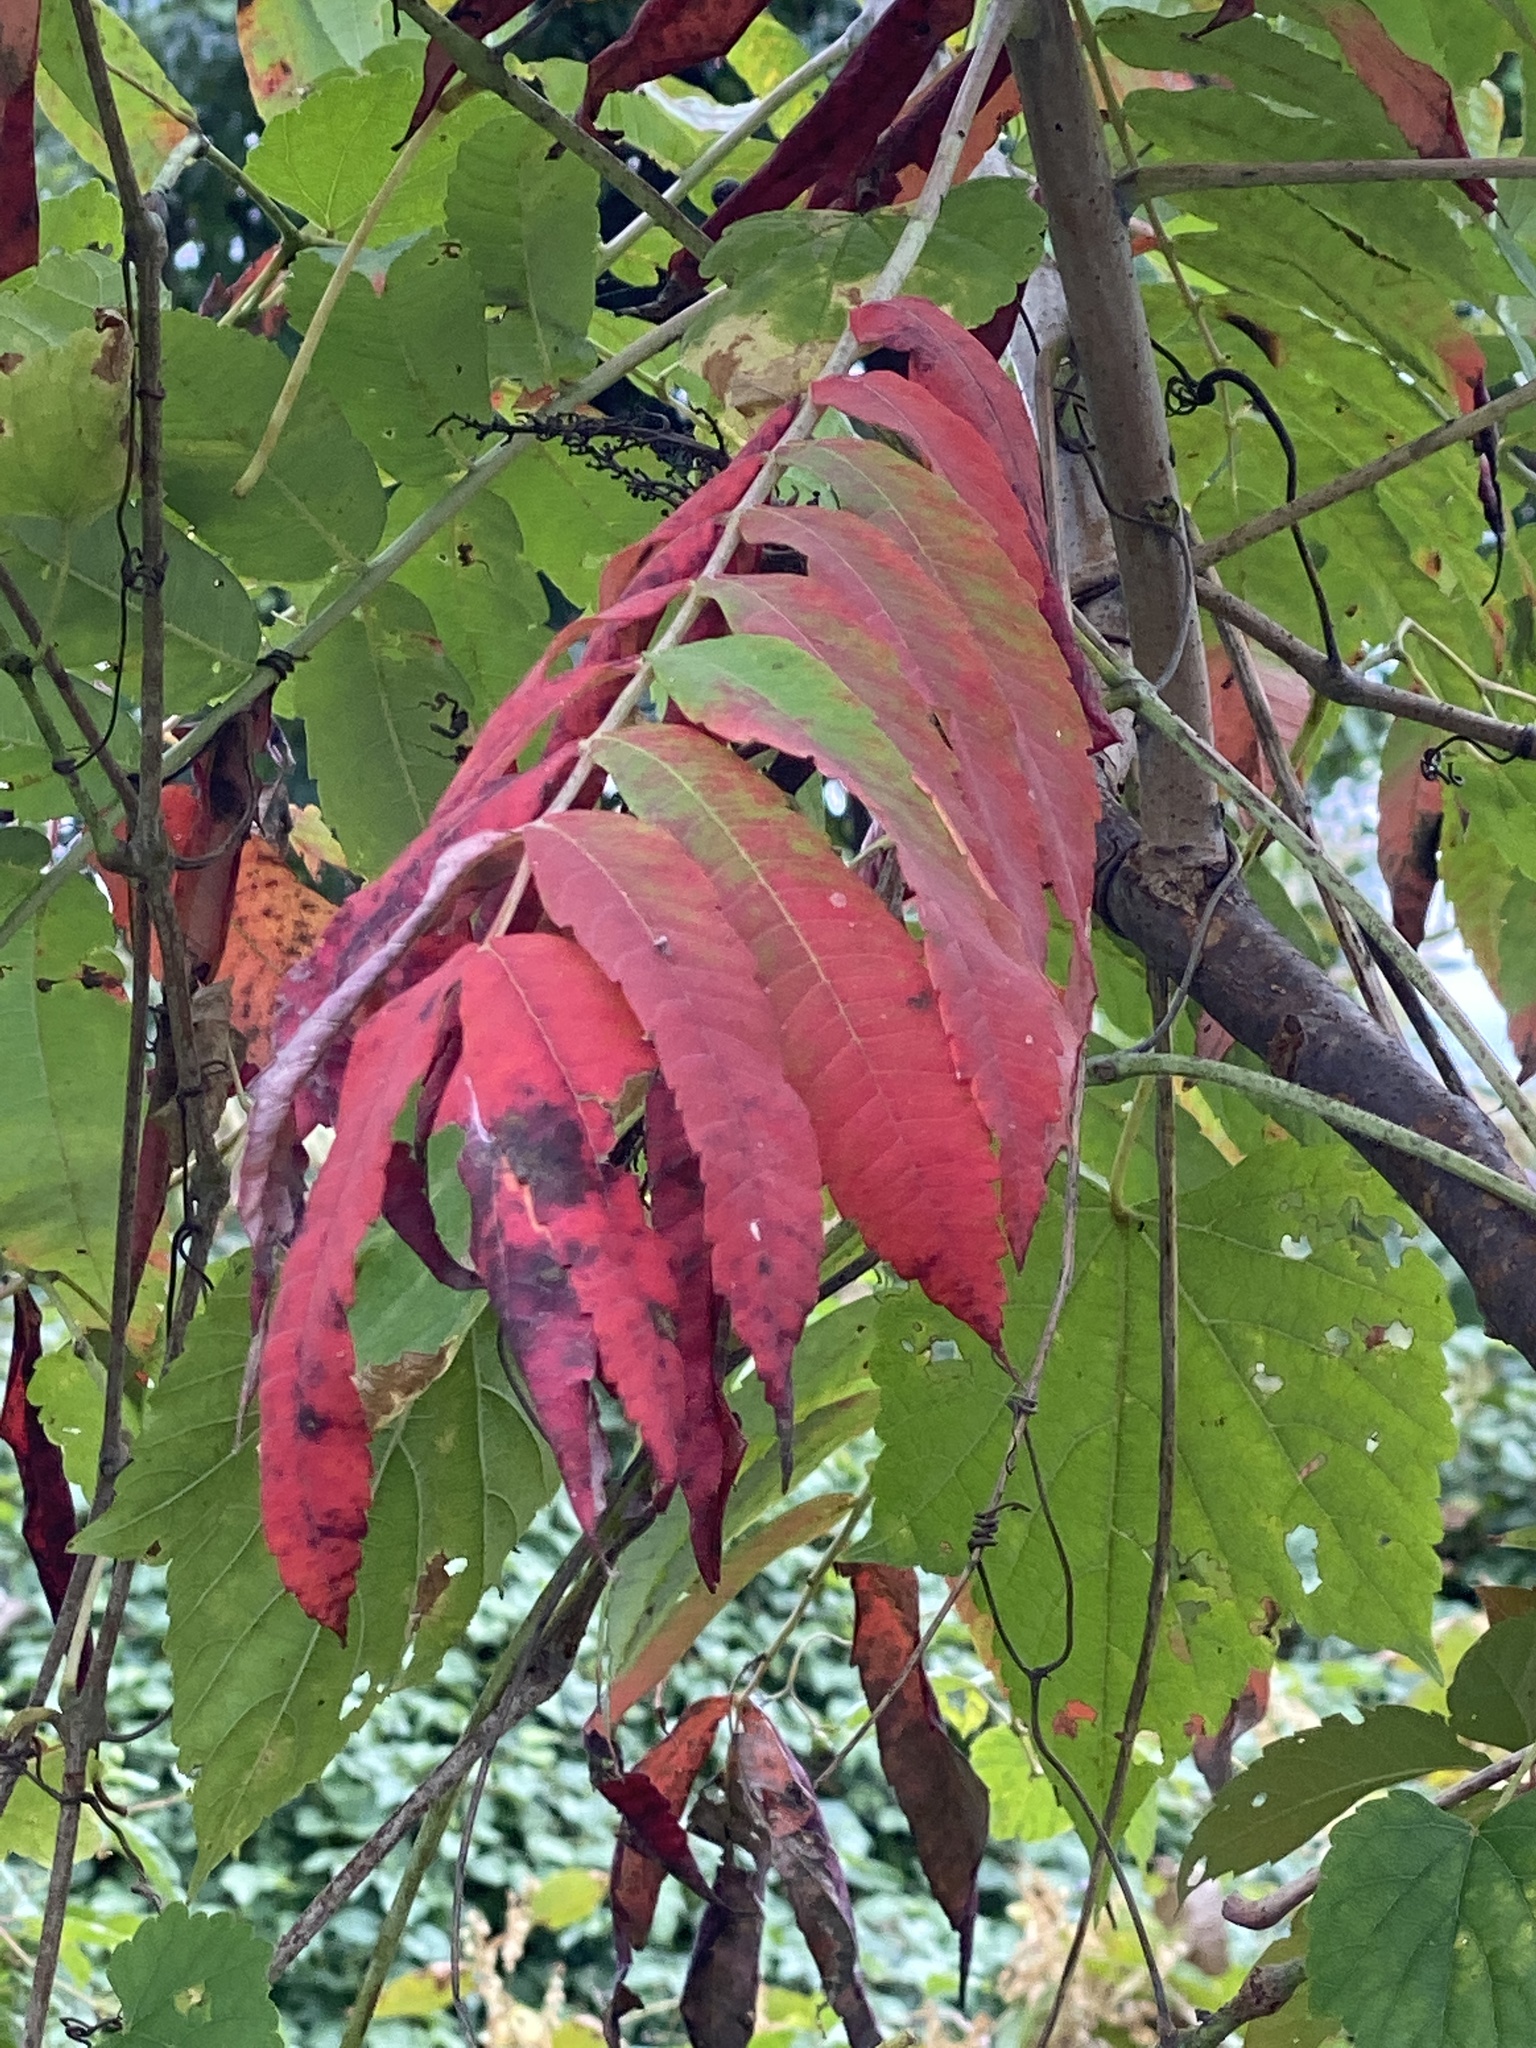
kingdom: Plantae
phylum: Tracheophyta
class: Magnoliopsida
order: Sapindales
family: Anacardiaceae
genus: Rhus
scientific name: Rhus glabra
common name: Scarlet sumac
